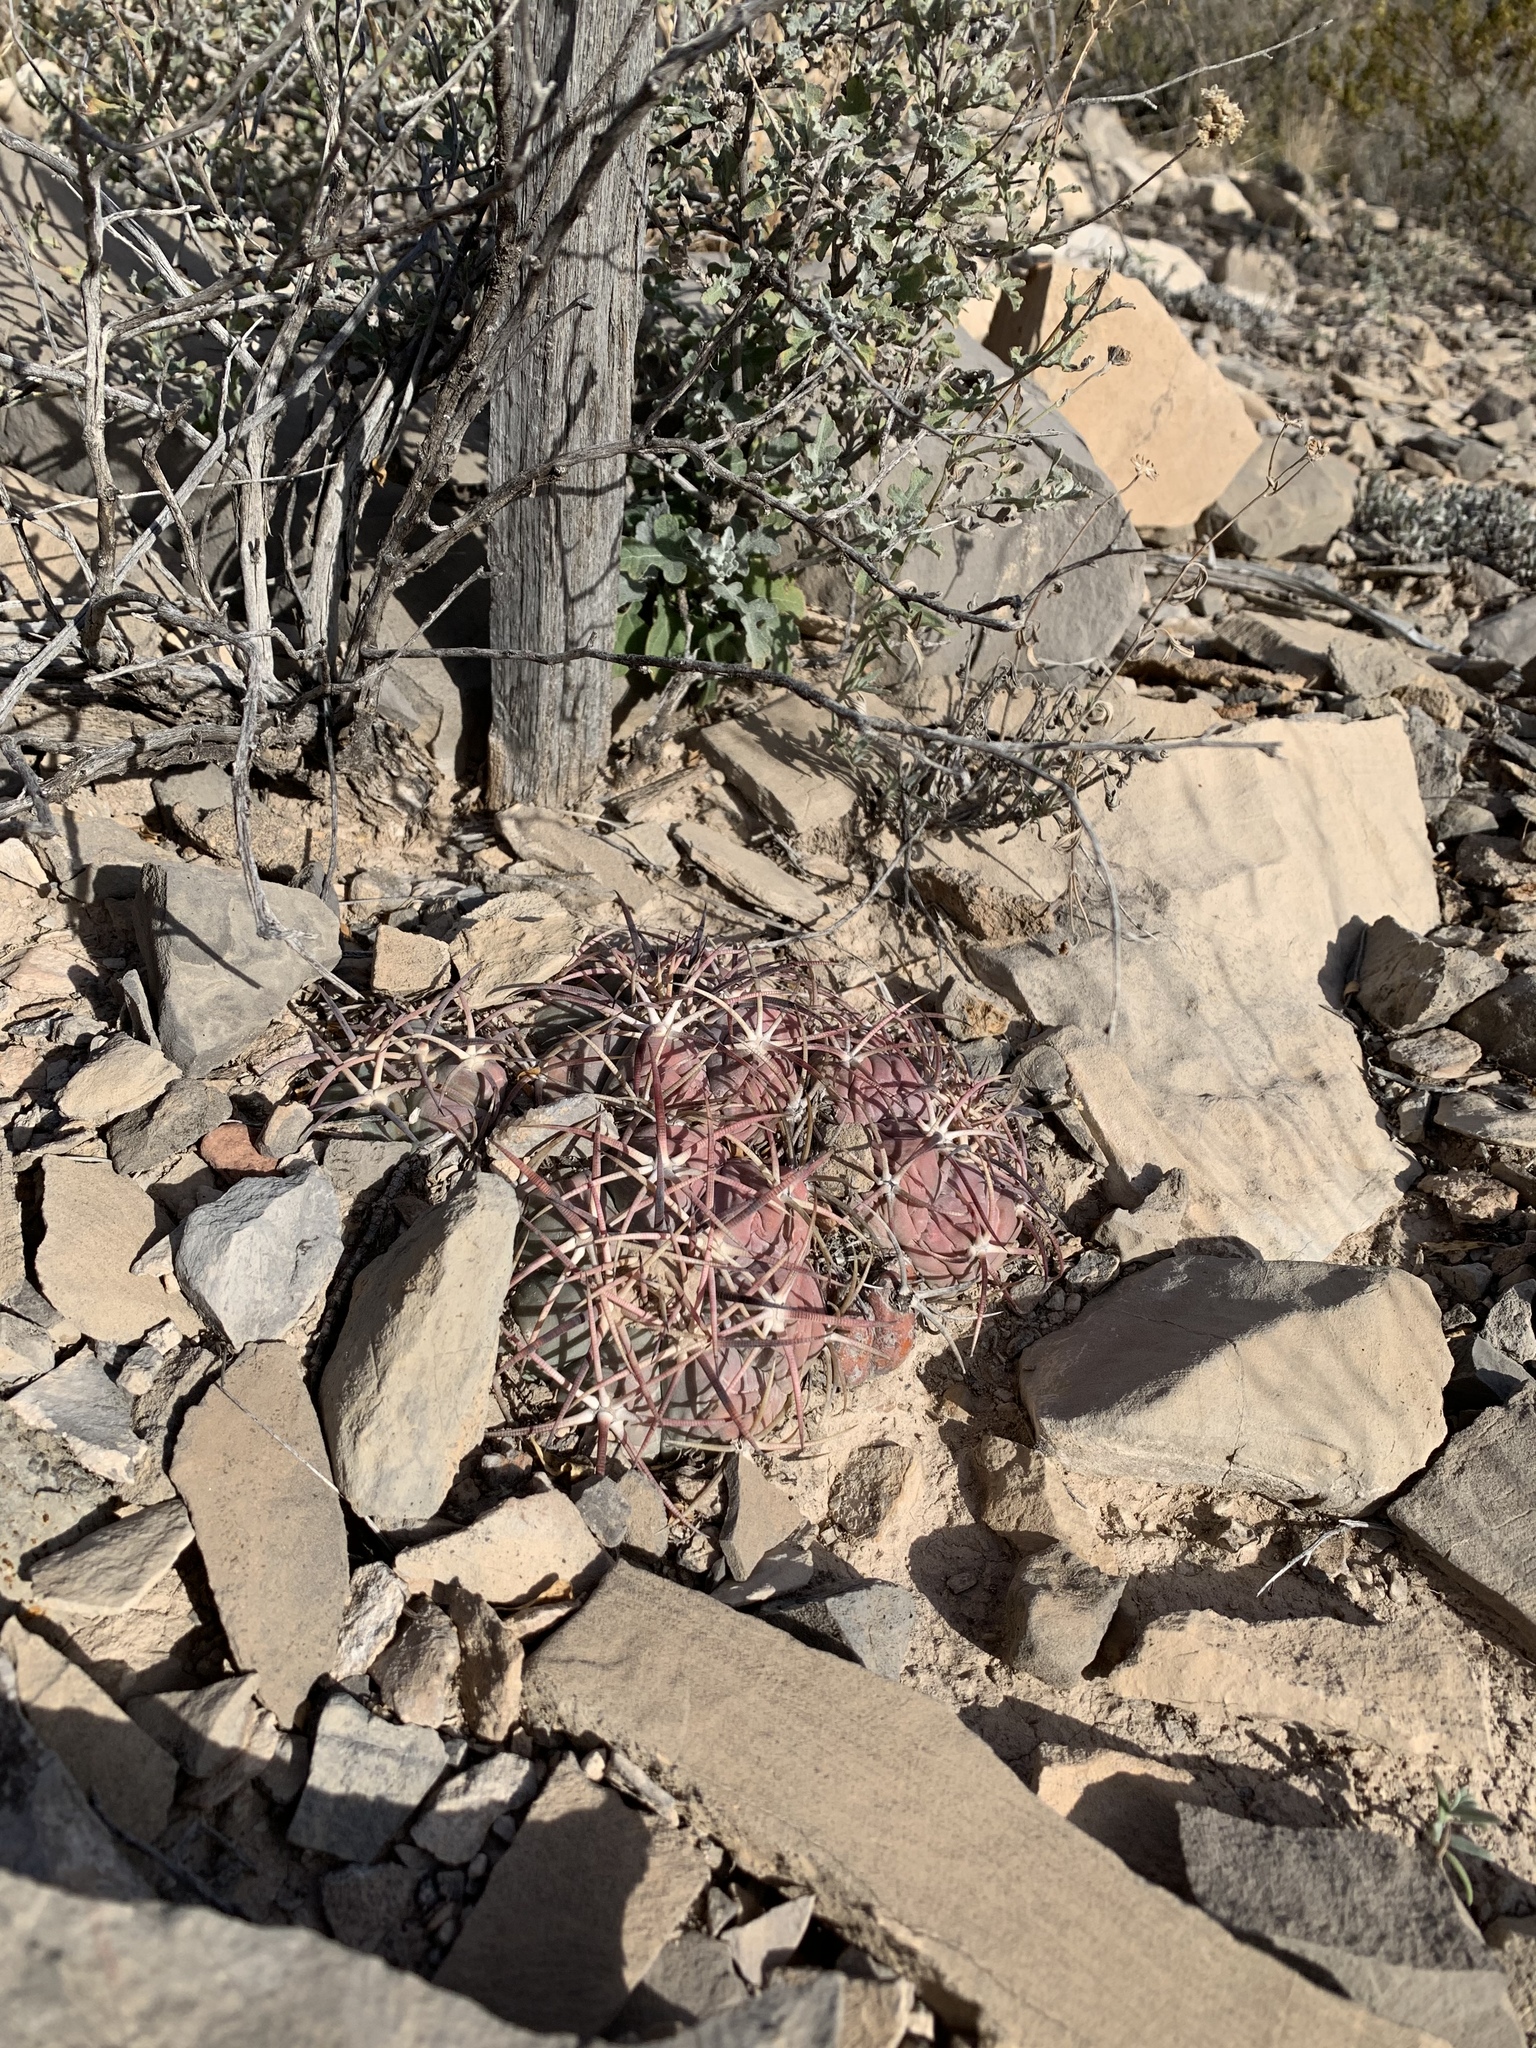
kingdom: Plantae
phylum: Tracheophyta
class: Magnoliopsida
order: Caryophyllales
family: Cactaceae
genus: Echinocactus
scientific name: Echinocactus horizonthalonius
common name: Devilshead
